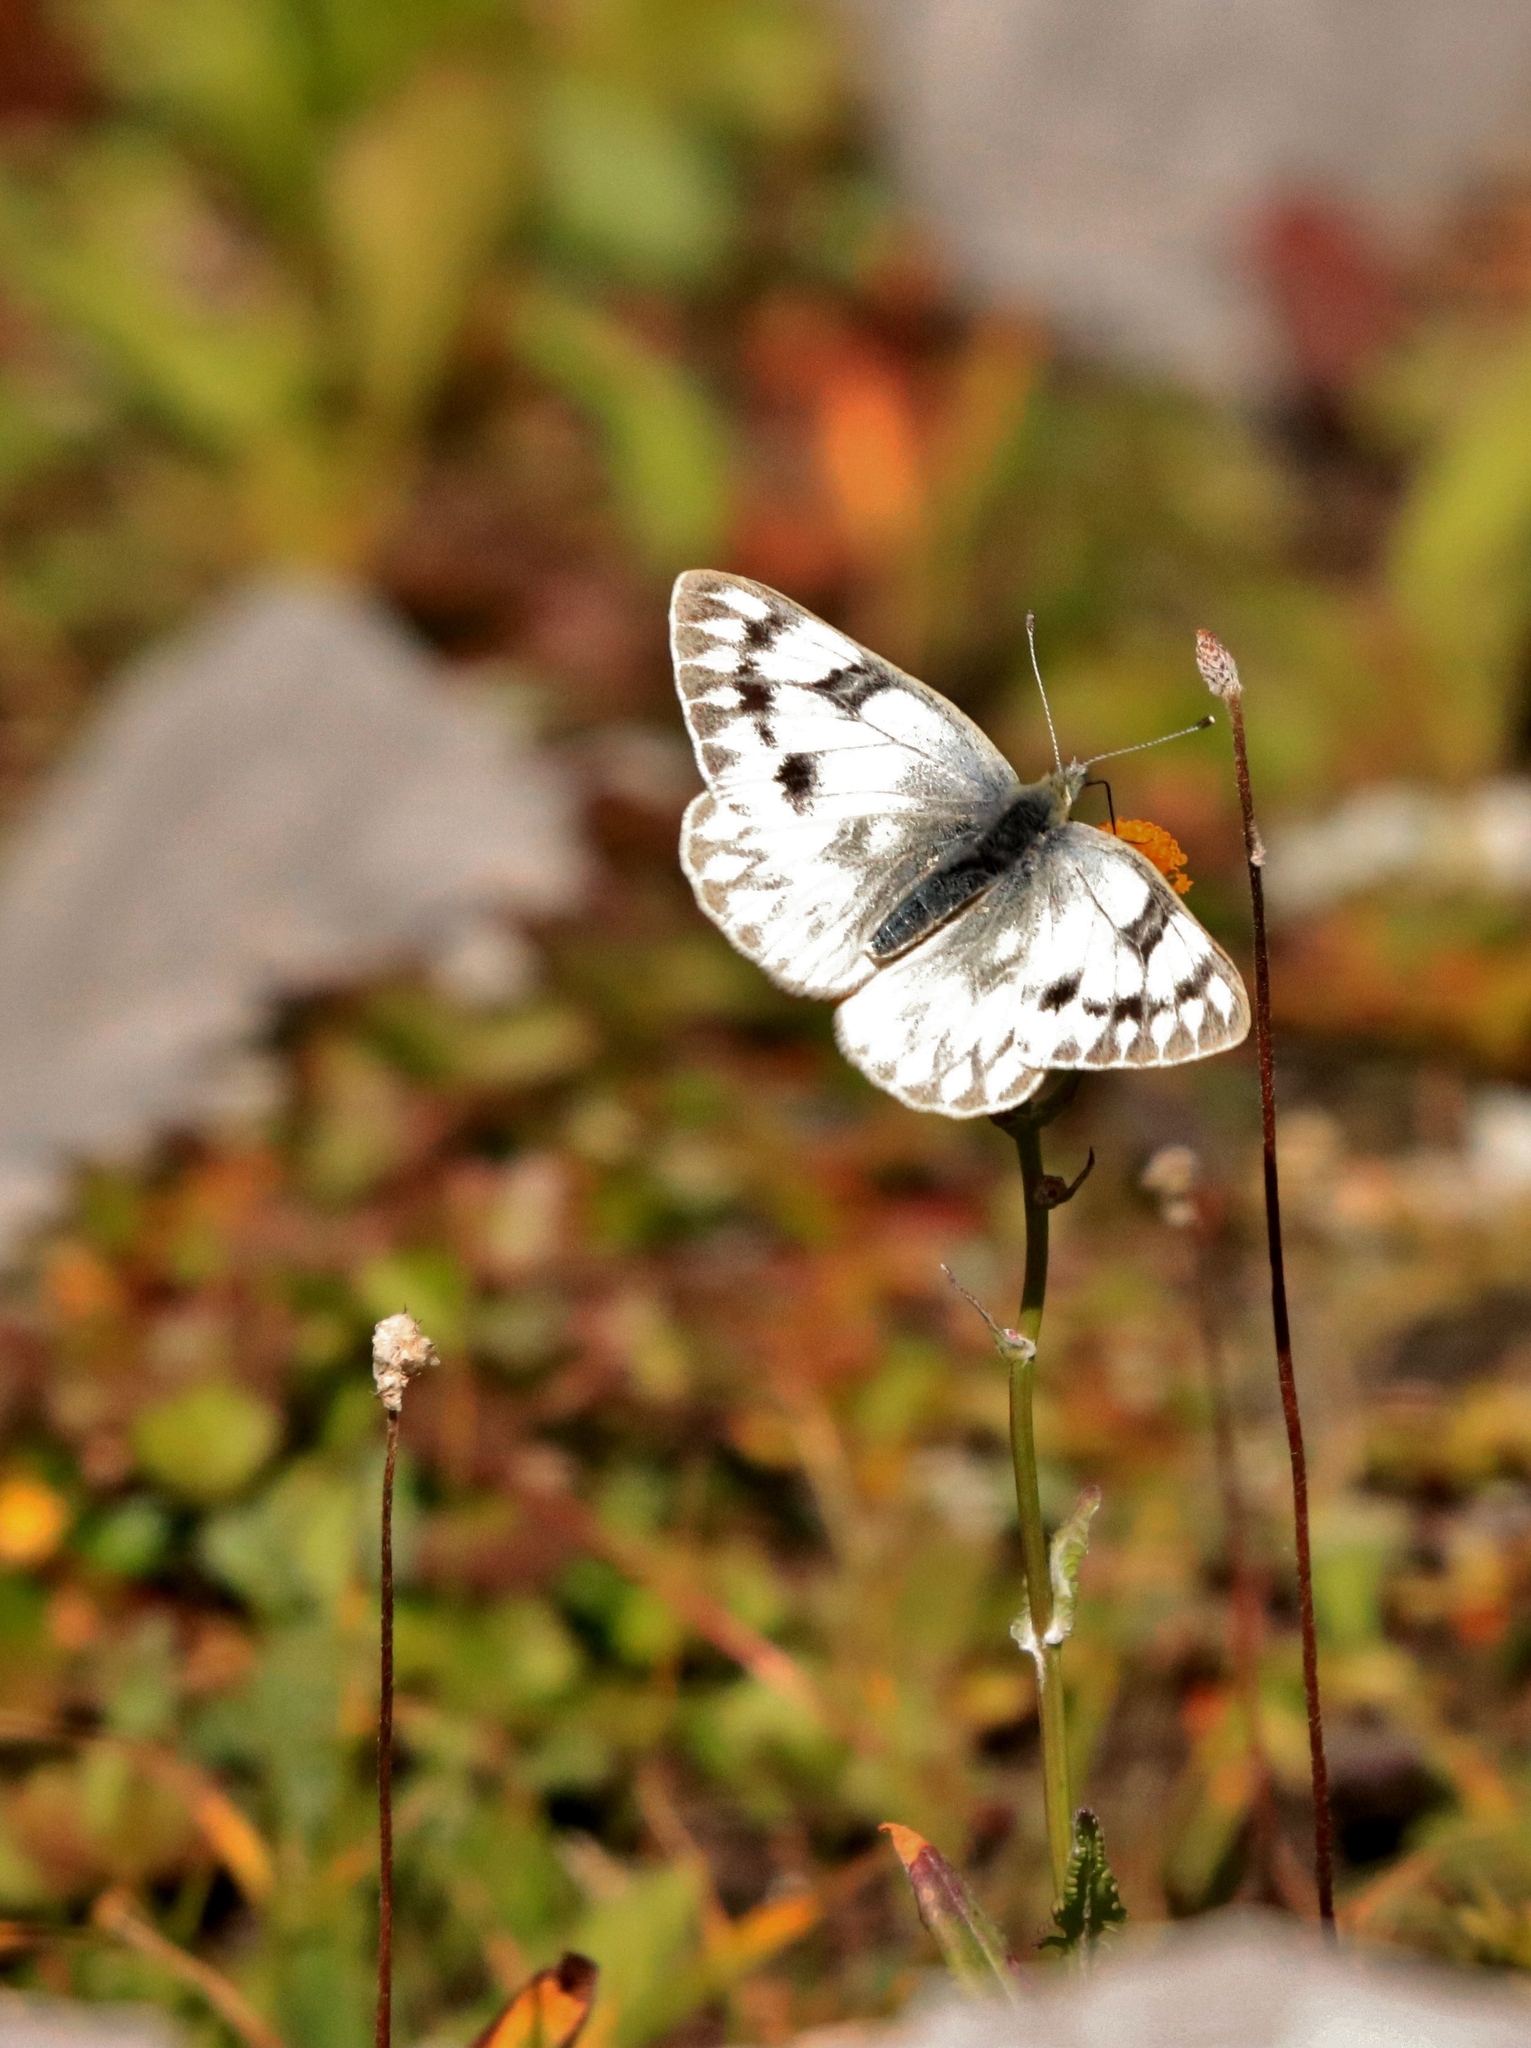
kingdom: Animalia
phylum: Arthropoda
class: Insecta
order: Lepidoptera
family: Pieridae
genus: Pontia
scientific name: Pontia occidentalis
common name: Western white
